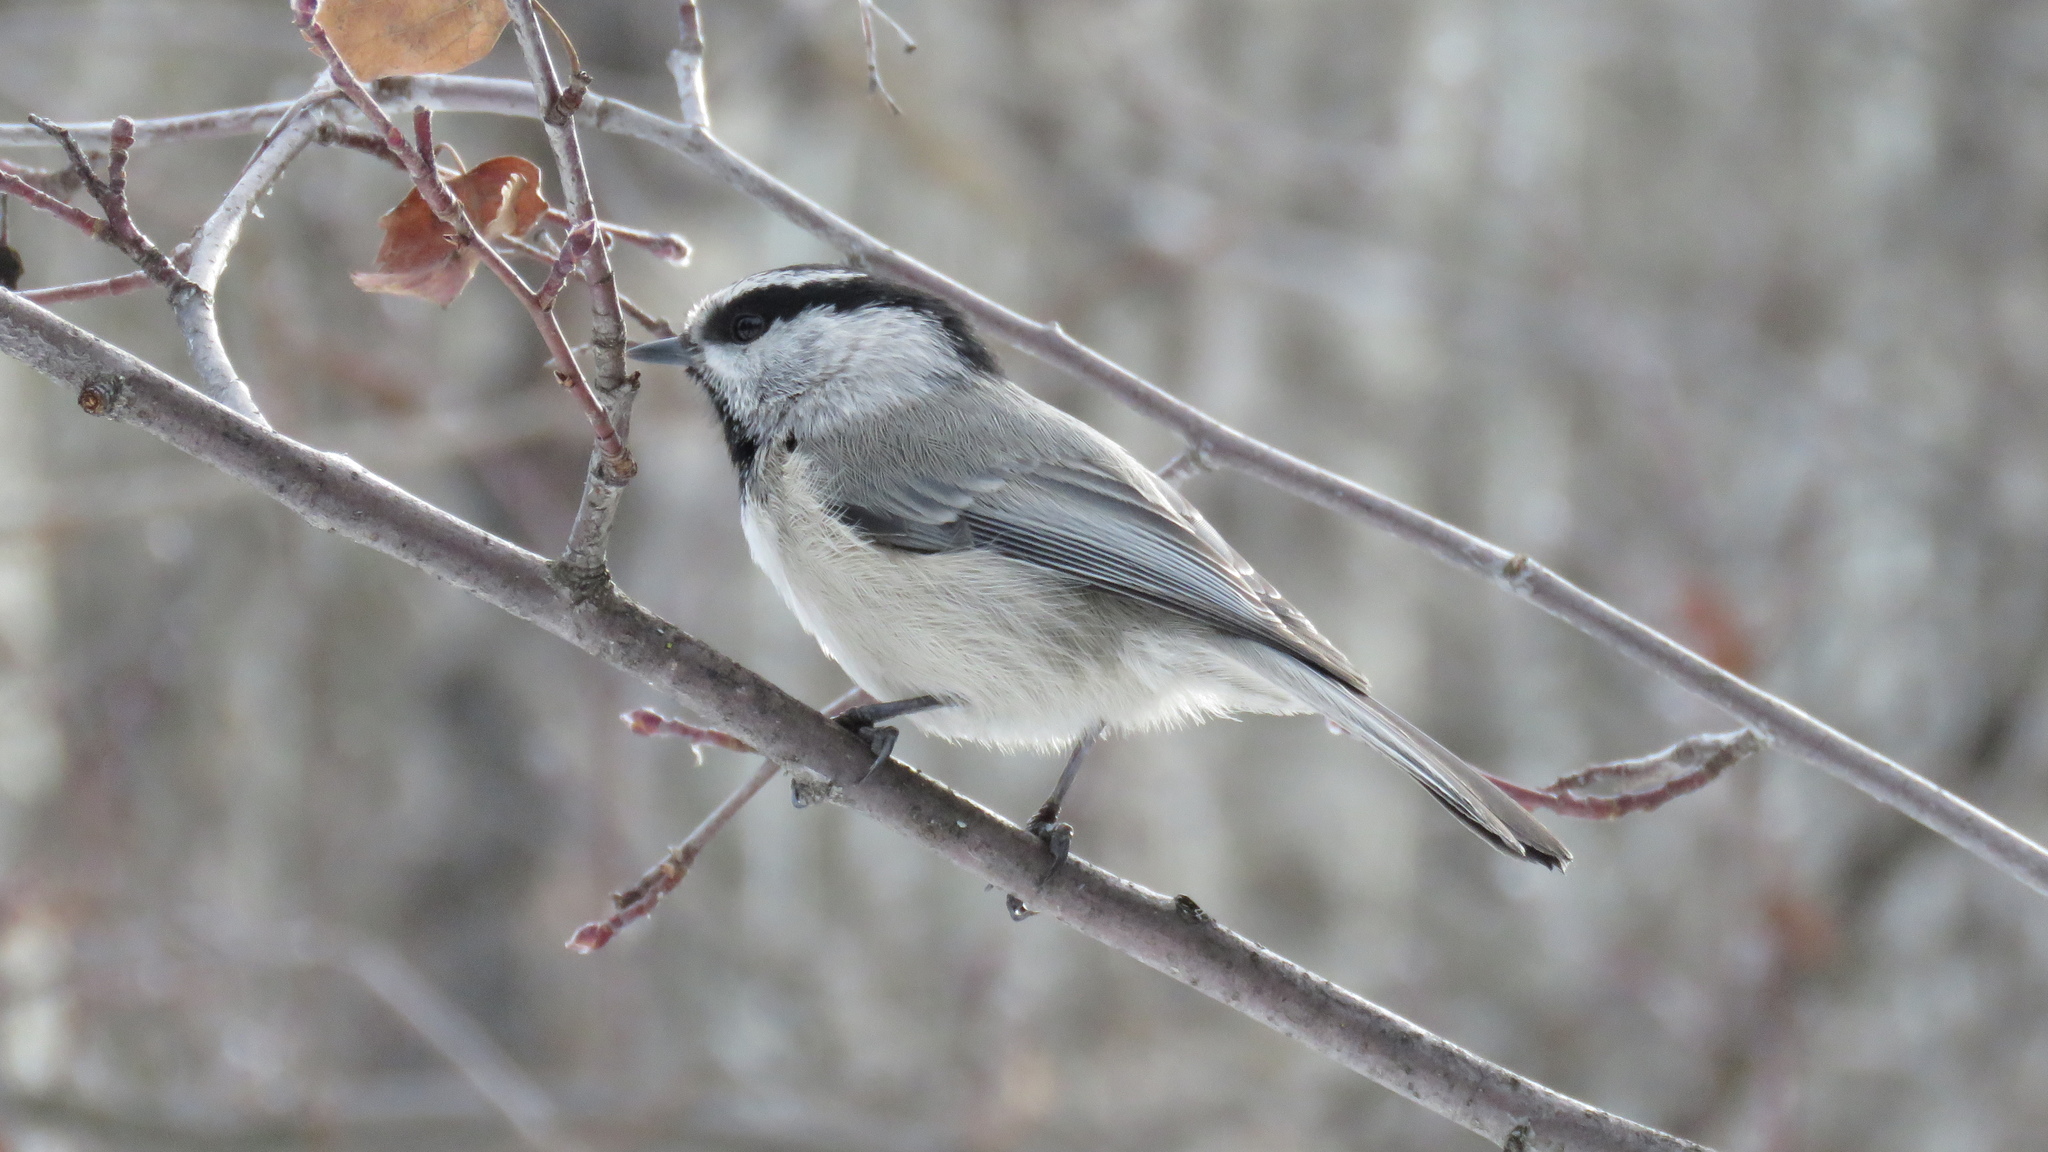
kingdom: Animalia
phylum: Chordata
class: Aves
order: Passeriformes
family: Paridae
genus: Poecile
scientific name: Poecile gambeli
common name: Mountain chickadee
